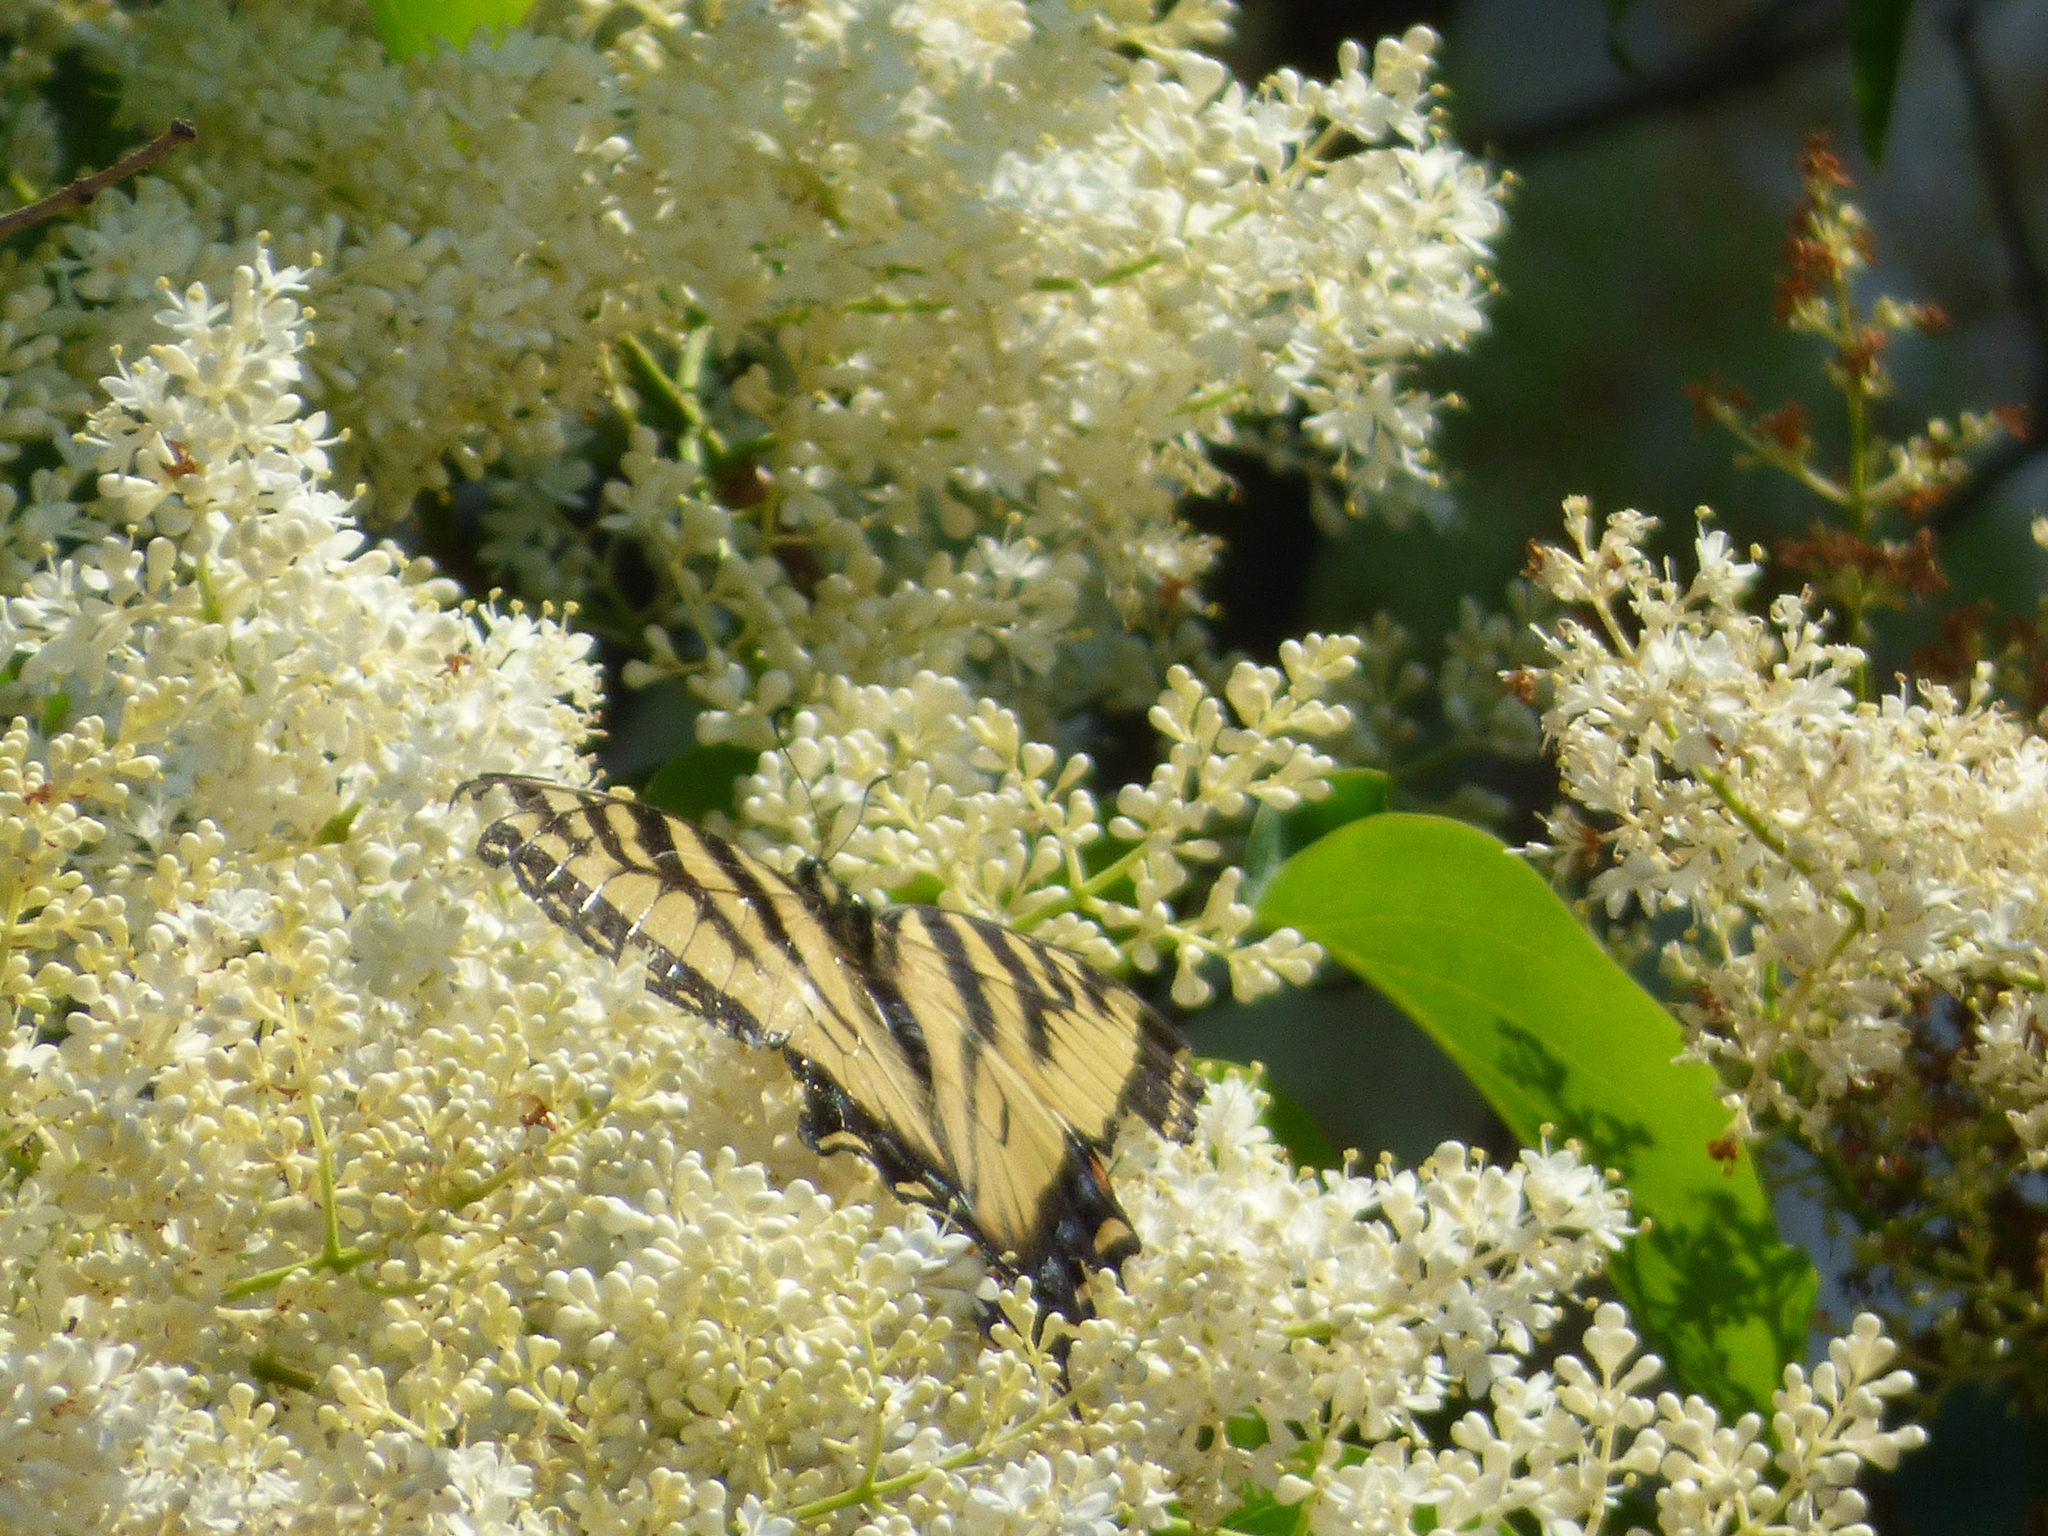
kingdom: Animalia
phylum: Arthropoda
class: Insecta
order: Lepidoptera
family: Papilionidae
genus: Papilio
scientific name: Papilio glaucus
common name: Tiger swallowtail
